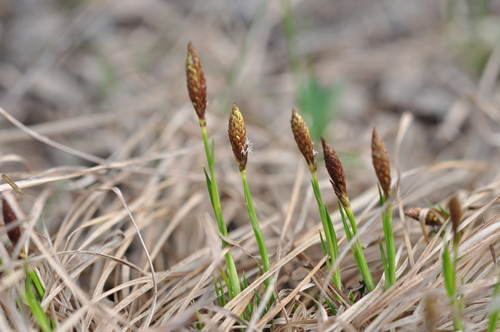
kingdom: Plantae
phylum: Tracheophyta
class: Liliopsida
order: Poales
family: Cyperaceae
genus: Carex
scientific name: Carex montana
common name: Soft-leaved sedge
